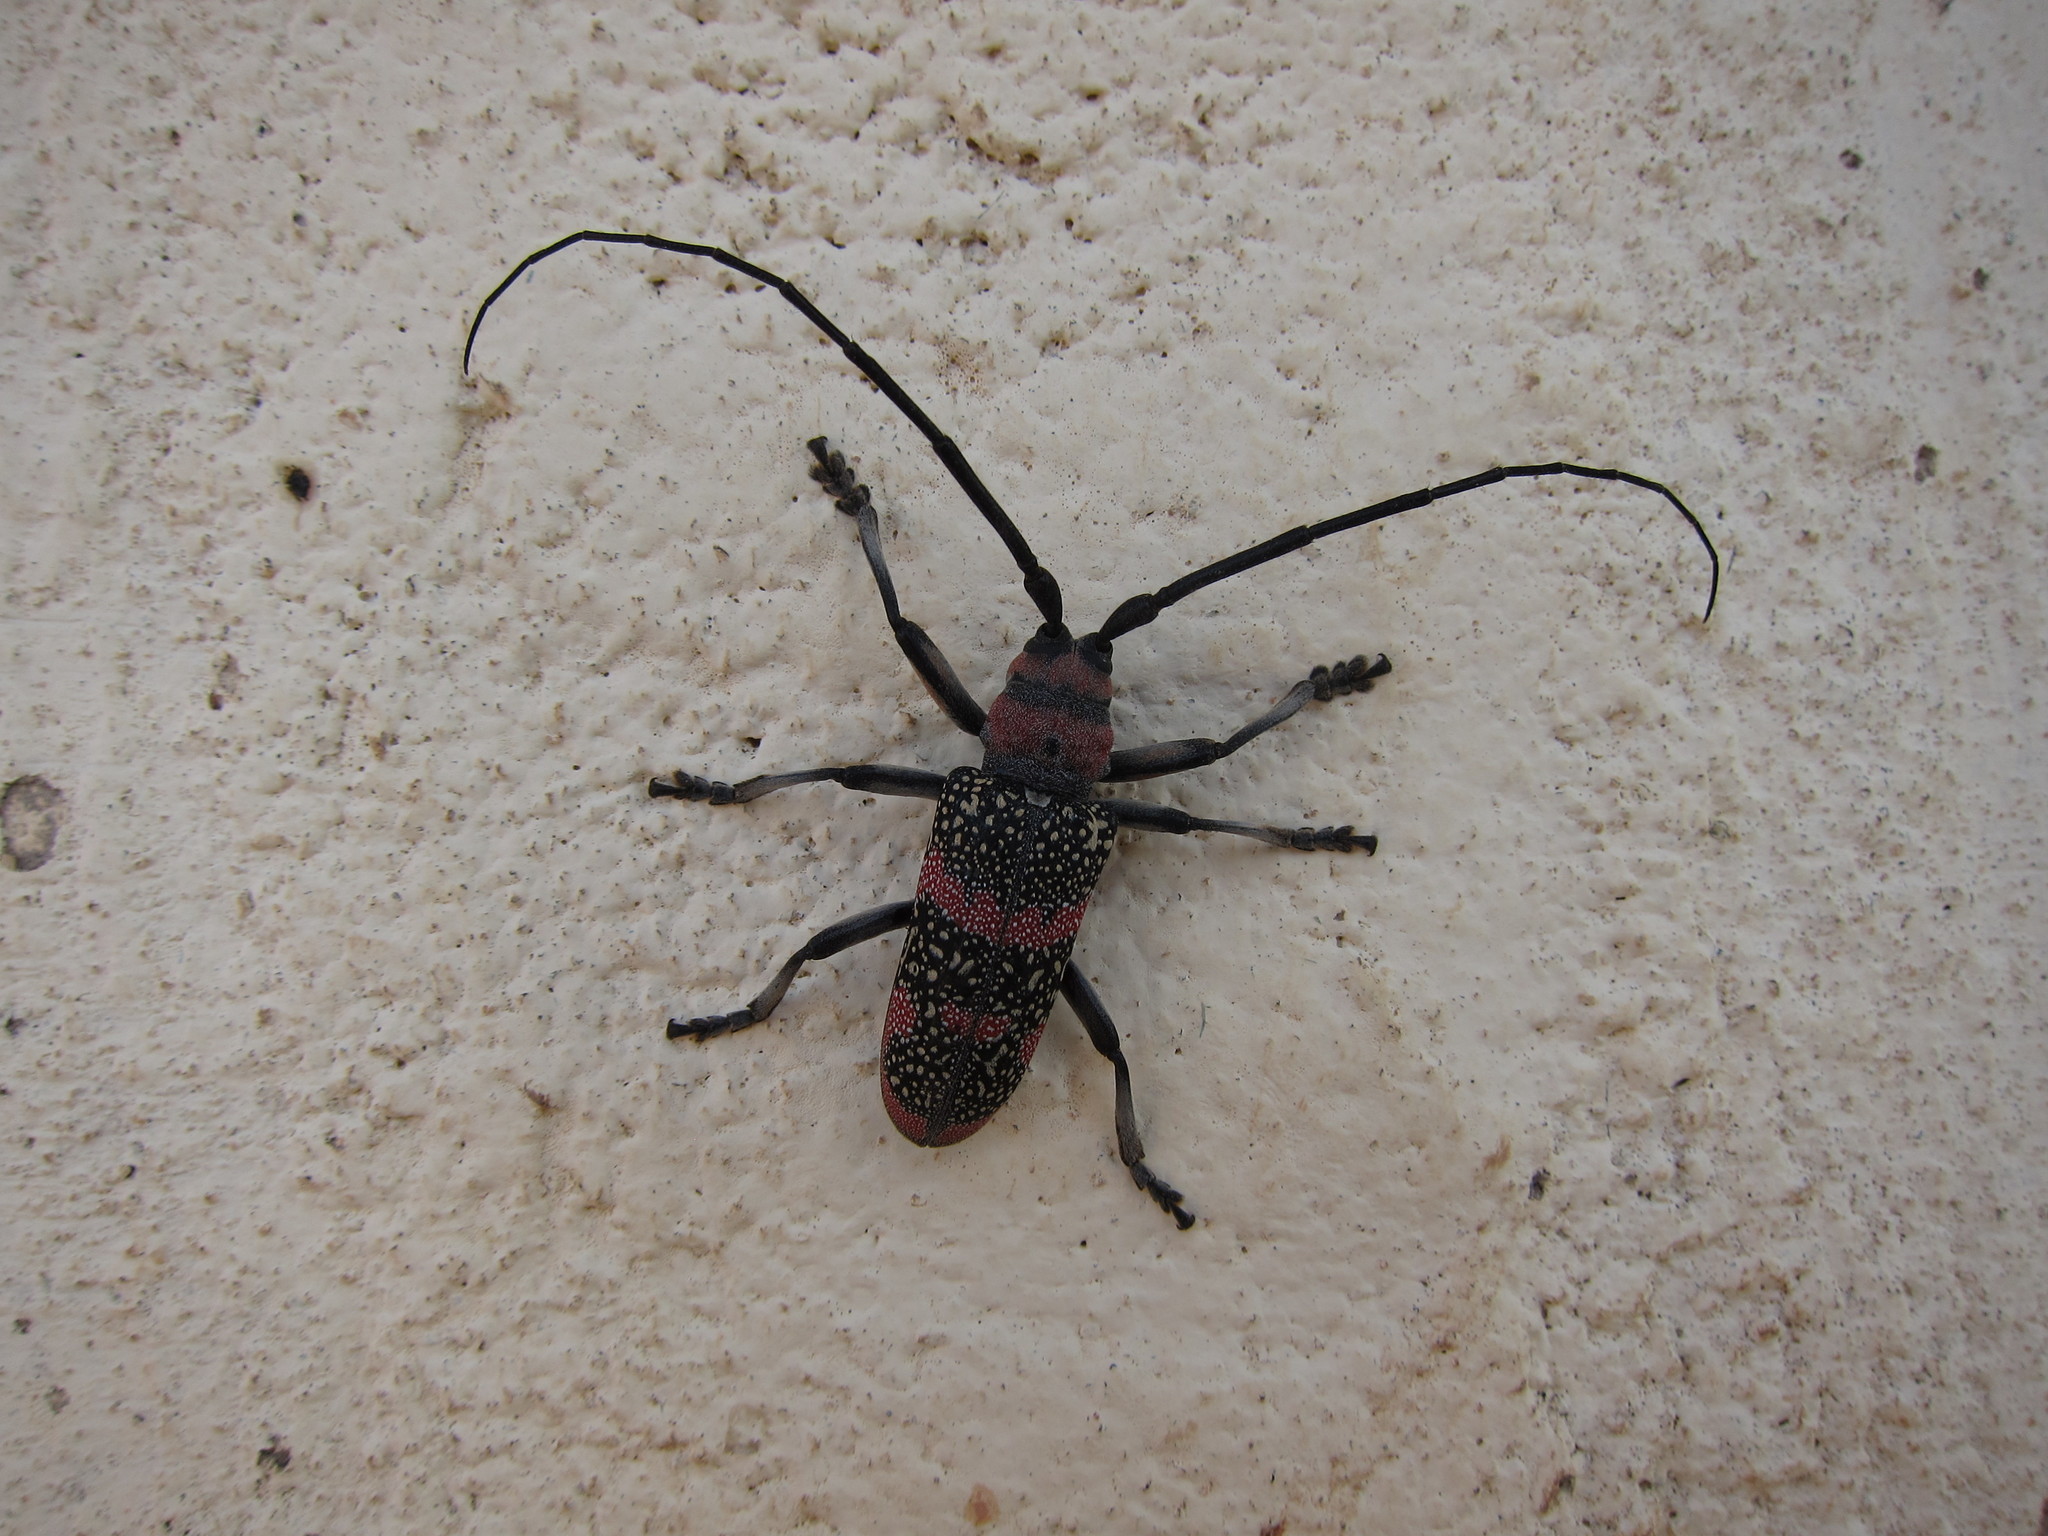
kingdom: Animalia
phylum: Arthropoda
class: Insecta
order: Coleoptera
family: Cerambycidae
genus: Ceroplesis
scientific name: Ceroplesis revoili
